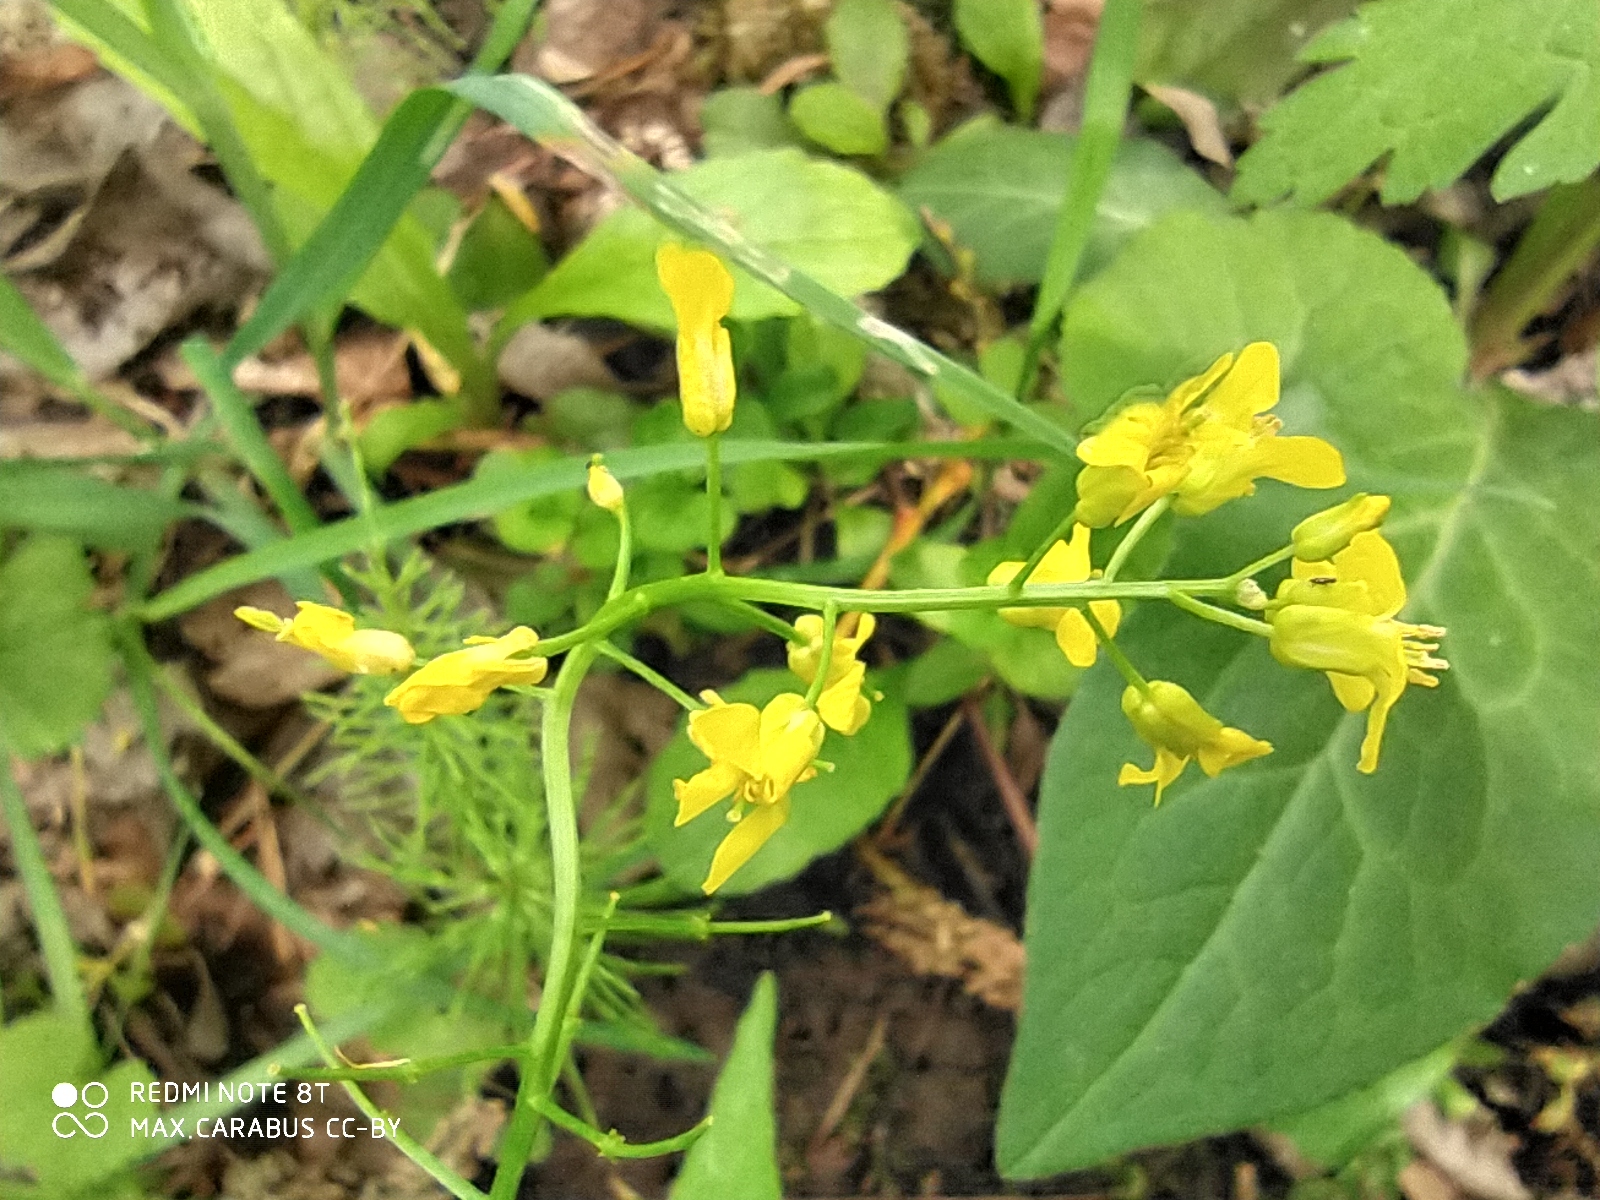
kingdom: Plantae
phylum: Tracheophyta
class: Magnoliopsida
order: Brassicales
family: Brassicaceae
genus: Barbarea
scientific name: Barbarea vulgaris
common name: Cressy-greens
